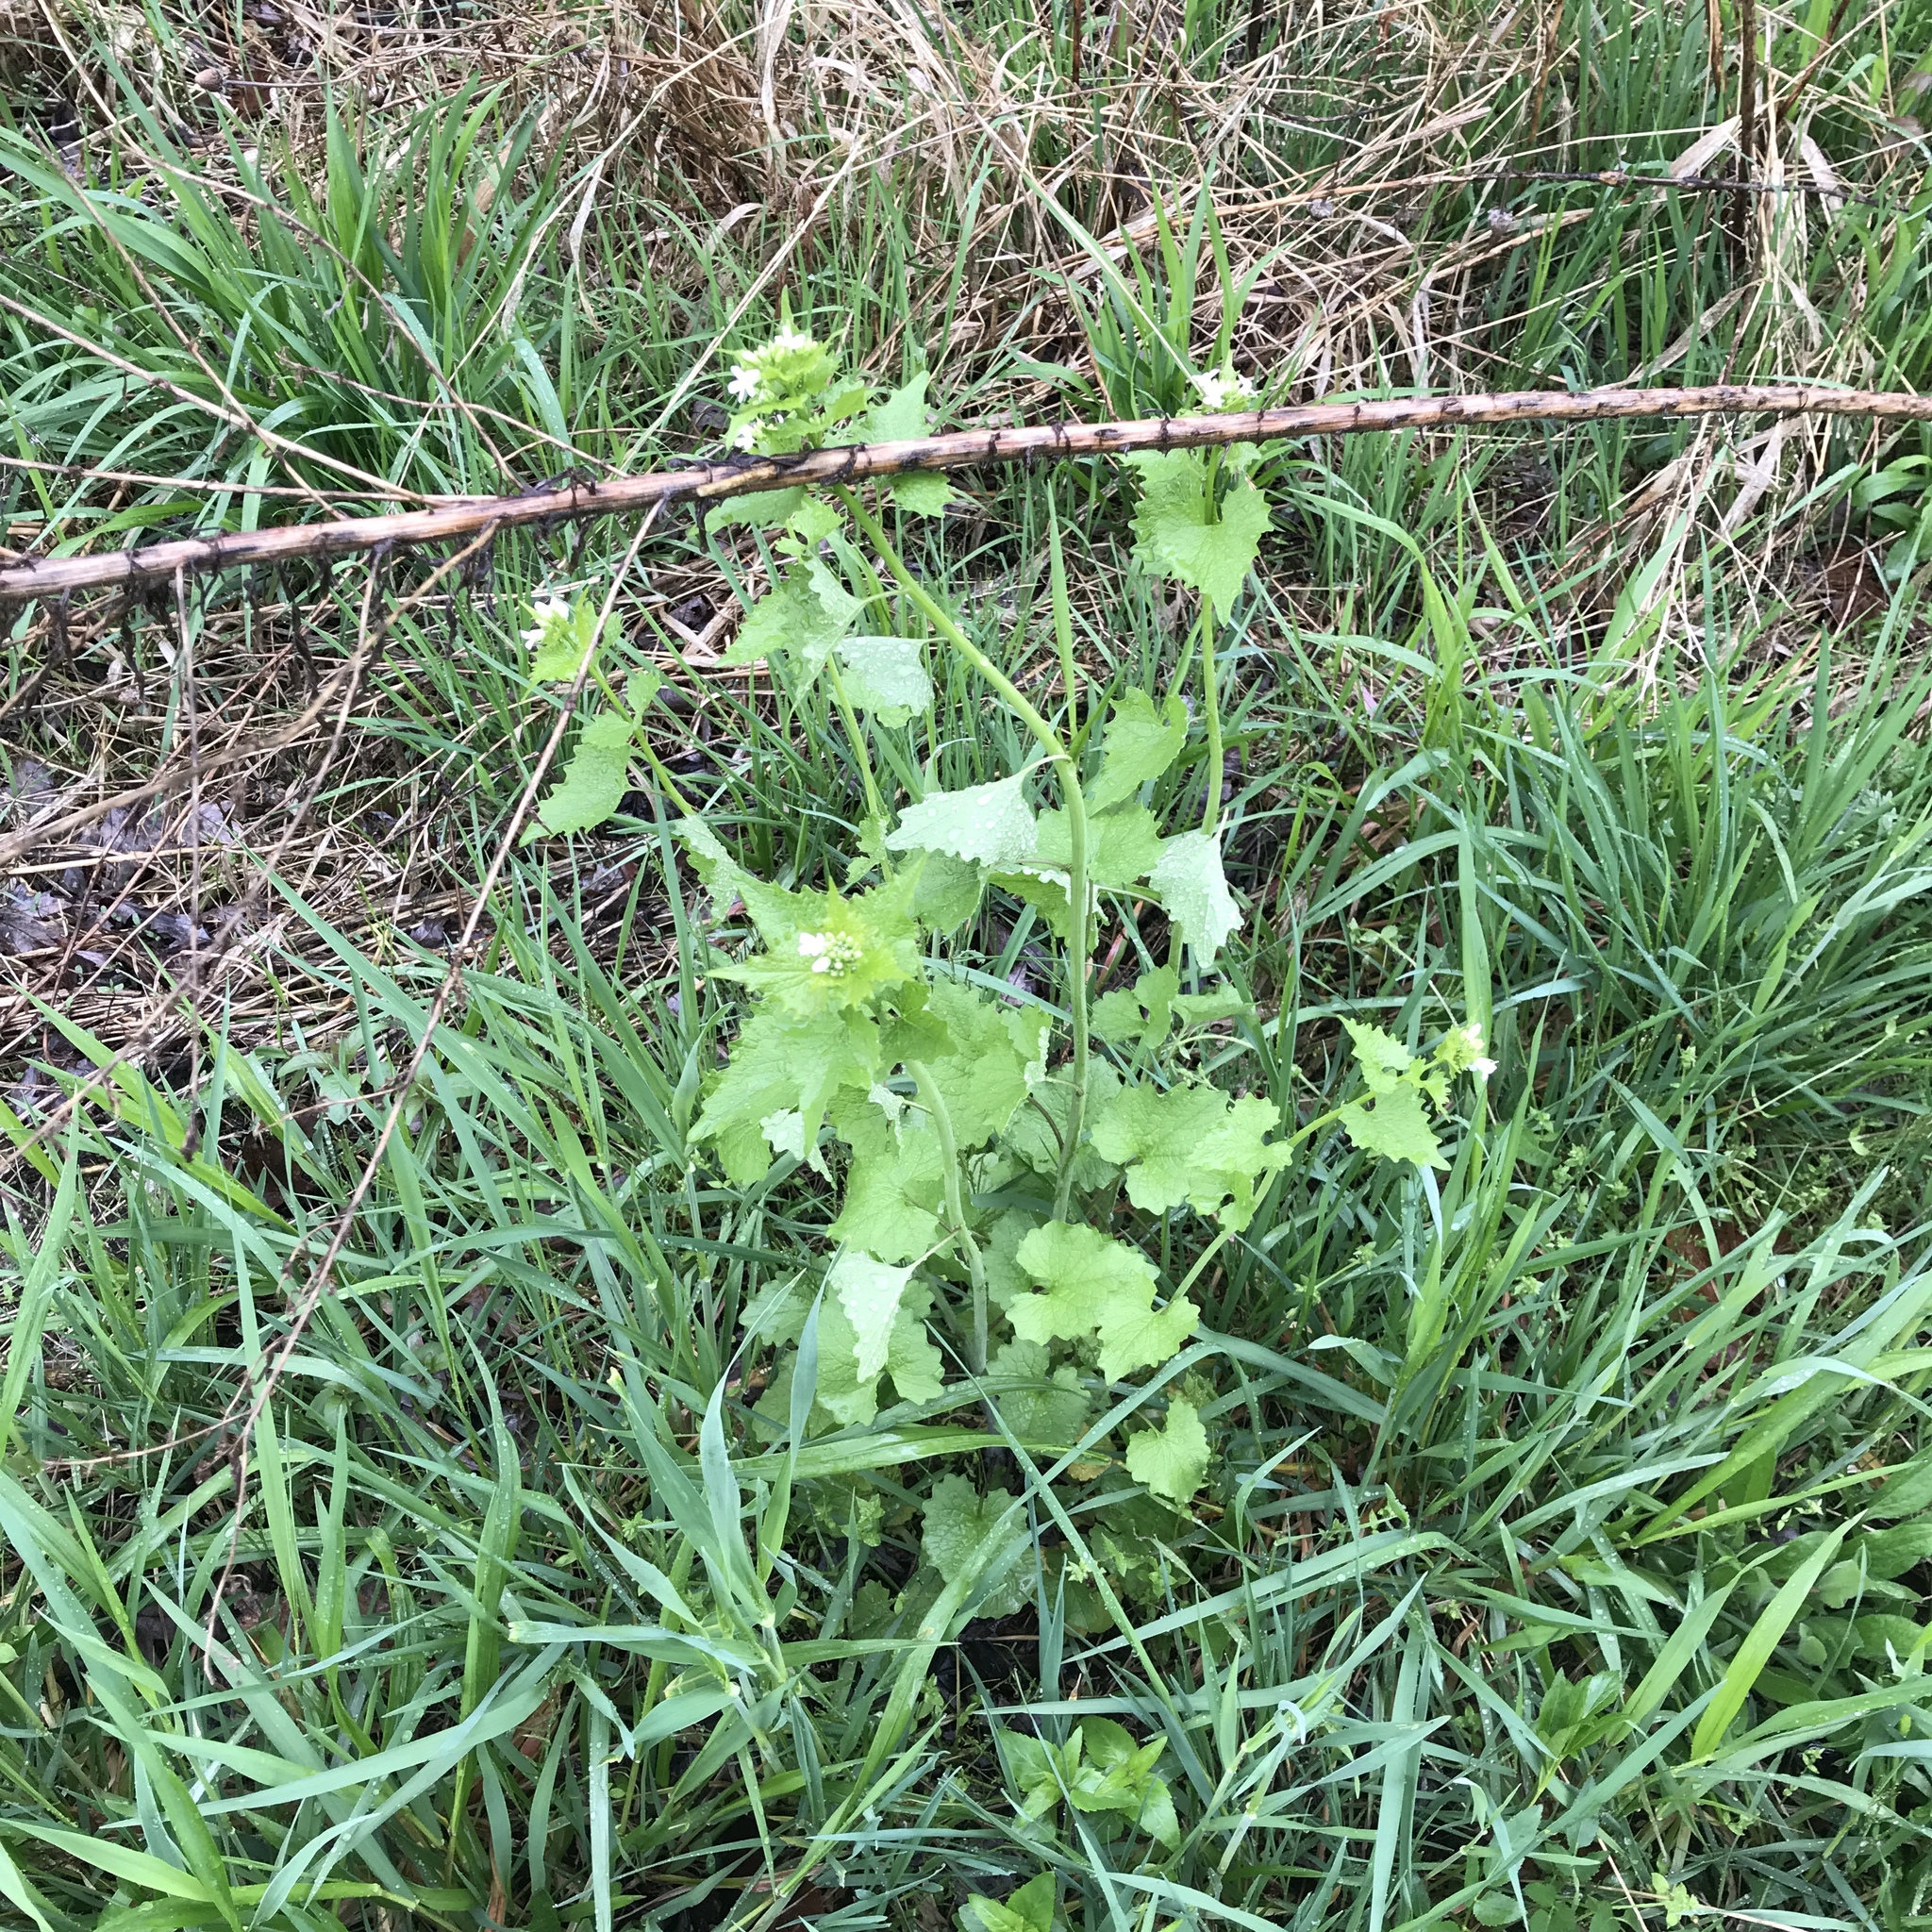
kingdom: Plantae
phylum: Tracheophyta
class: Magnoliopsida
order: Brassicales
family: Brassicaceae
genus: Alliaria
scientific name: Alliaria petiolata
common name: Garlic mustard
